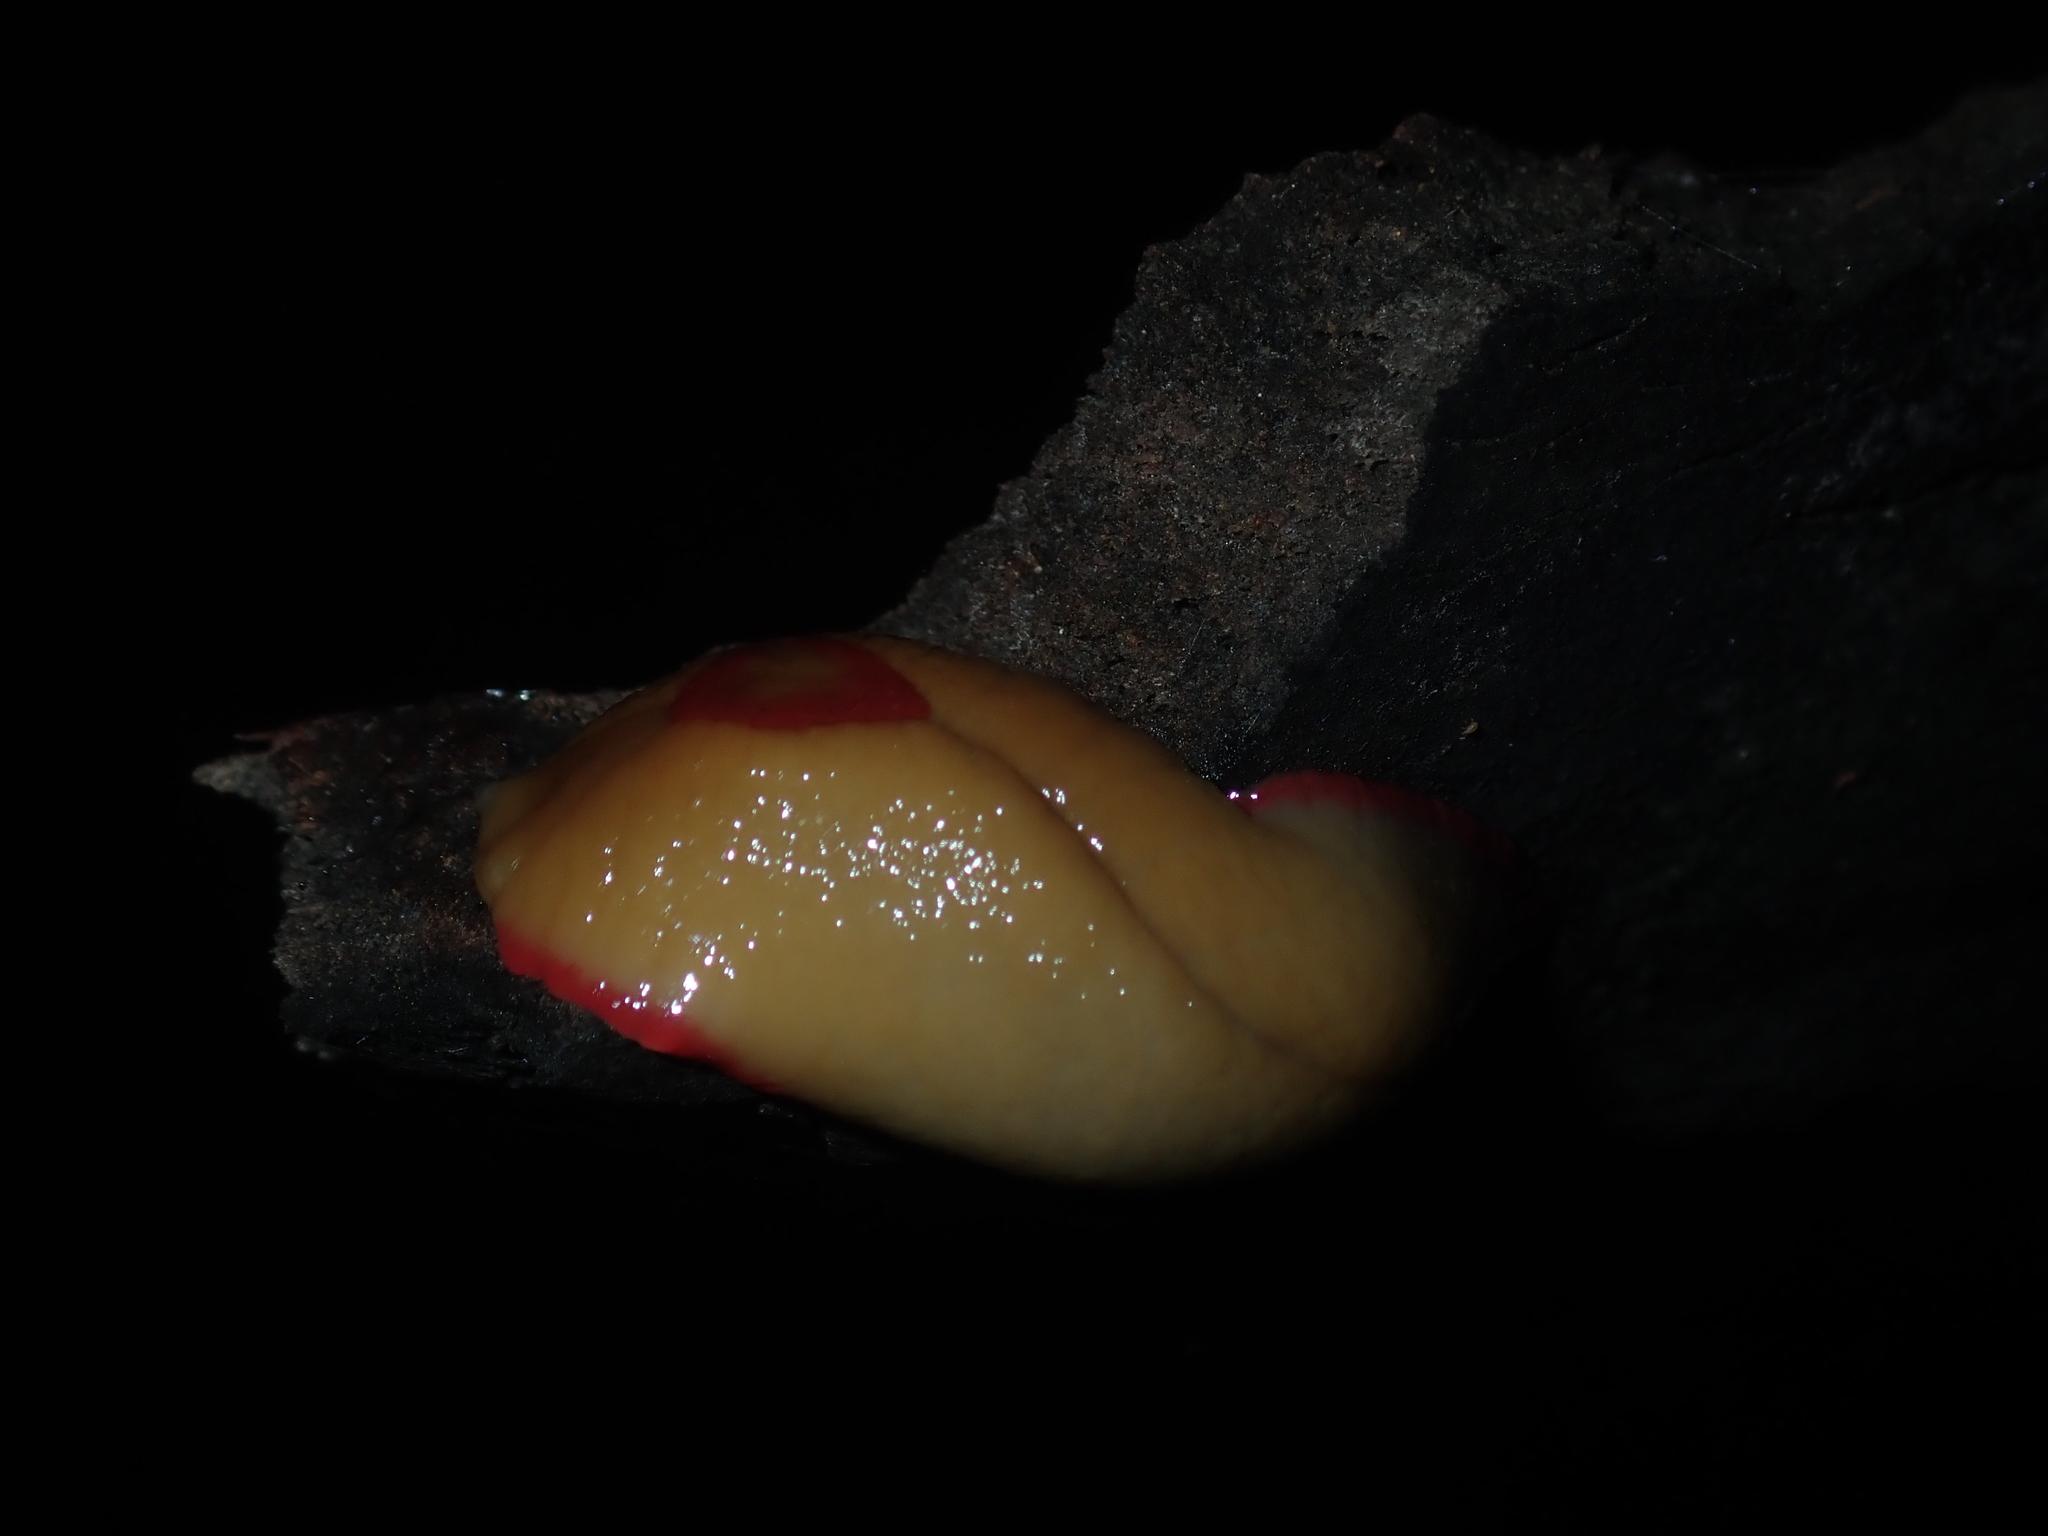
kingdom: Animalia
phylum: Mollusca
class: Gastropoda
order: Stylommatophora
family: Athoracophoridae
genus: Triboniophorus
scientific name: Triboniophorus graeffei
